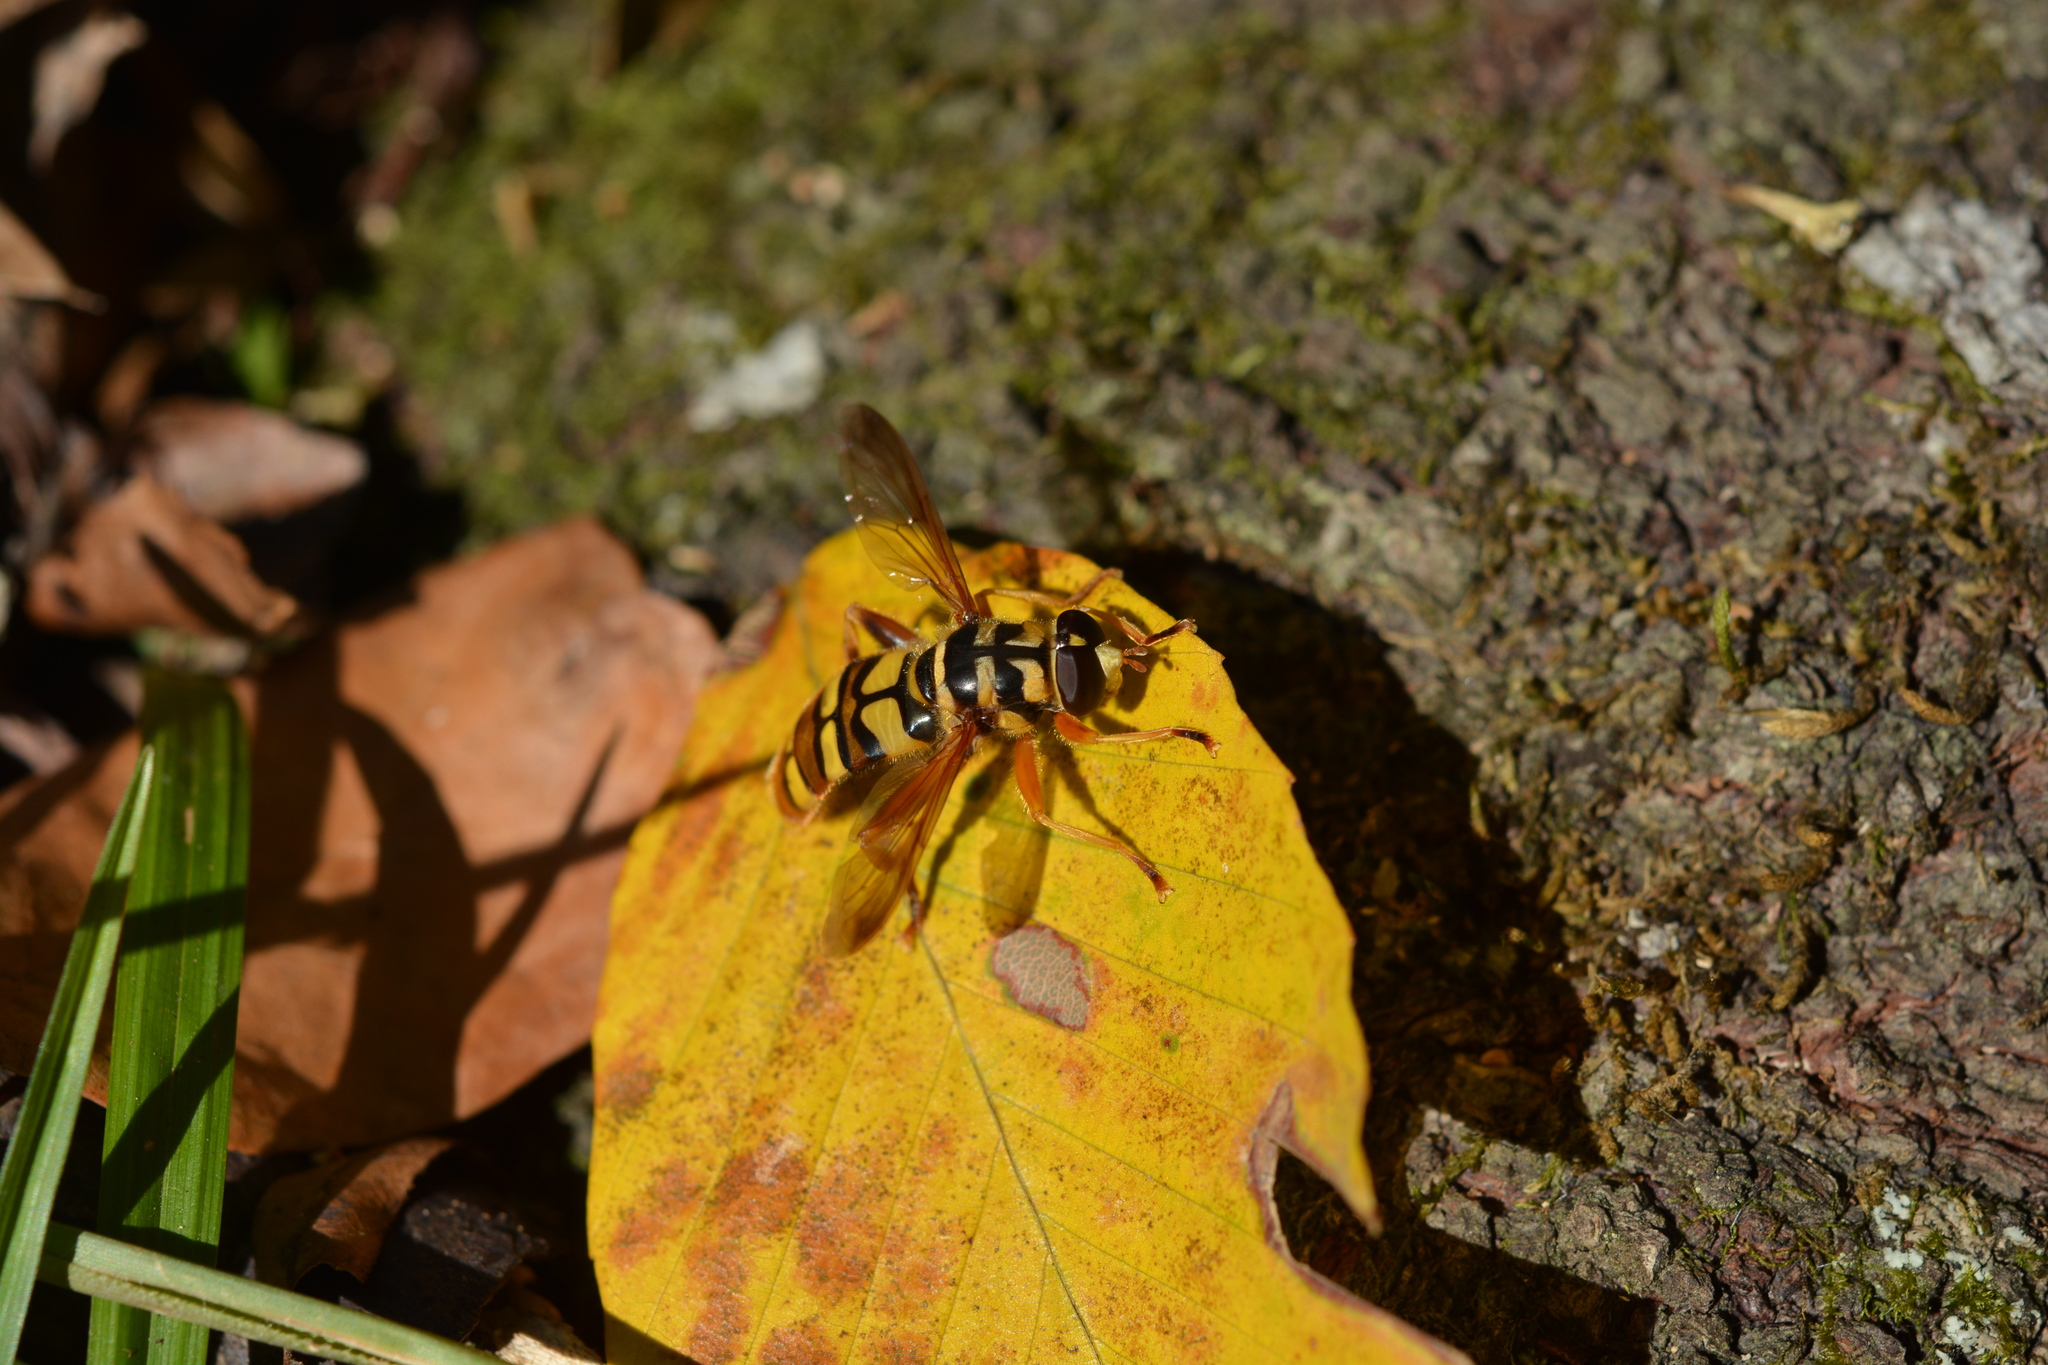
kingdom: Animalia
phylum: Arthropoda
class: Insecta
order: Diptera
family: Syrphidae
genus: Milesia
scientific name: Milesia virginiensis
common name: Virginia giant
